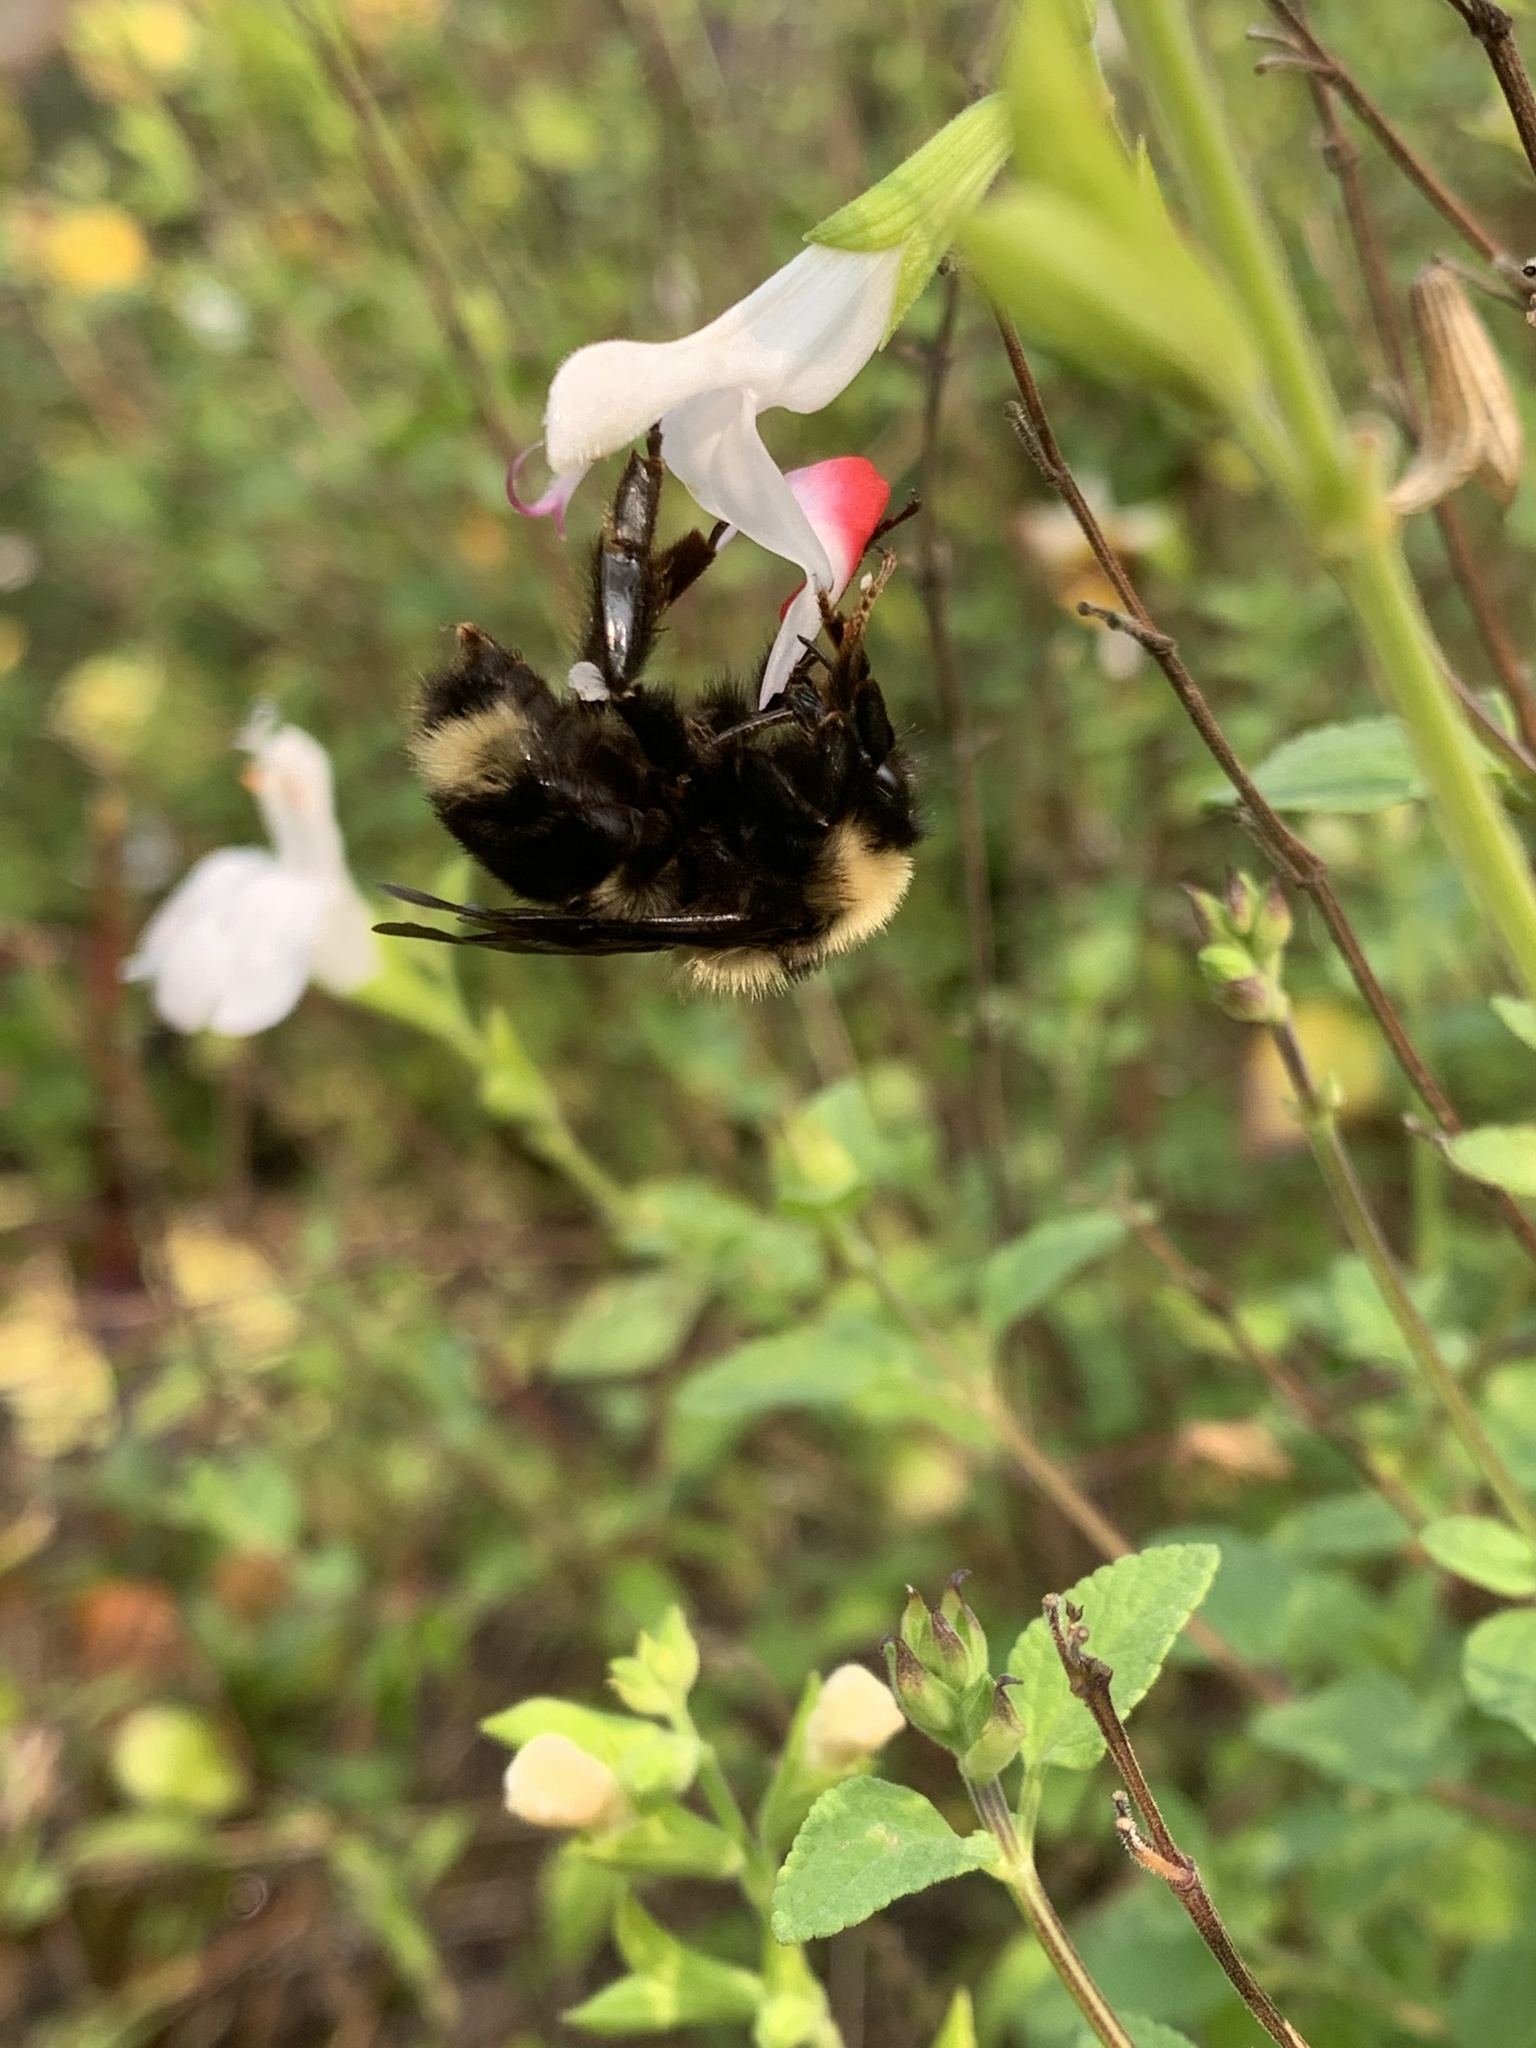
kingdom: Animalia
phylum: Arthropoda
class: Insecta
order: Hymenoptera
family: Apidae
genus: Bombus
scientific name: Bombus californicus
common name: California bumble bee
